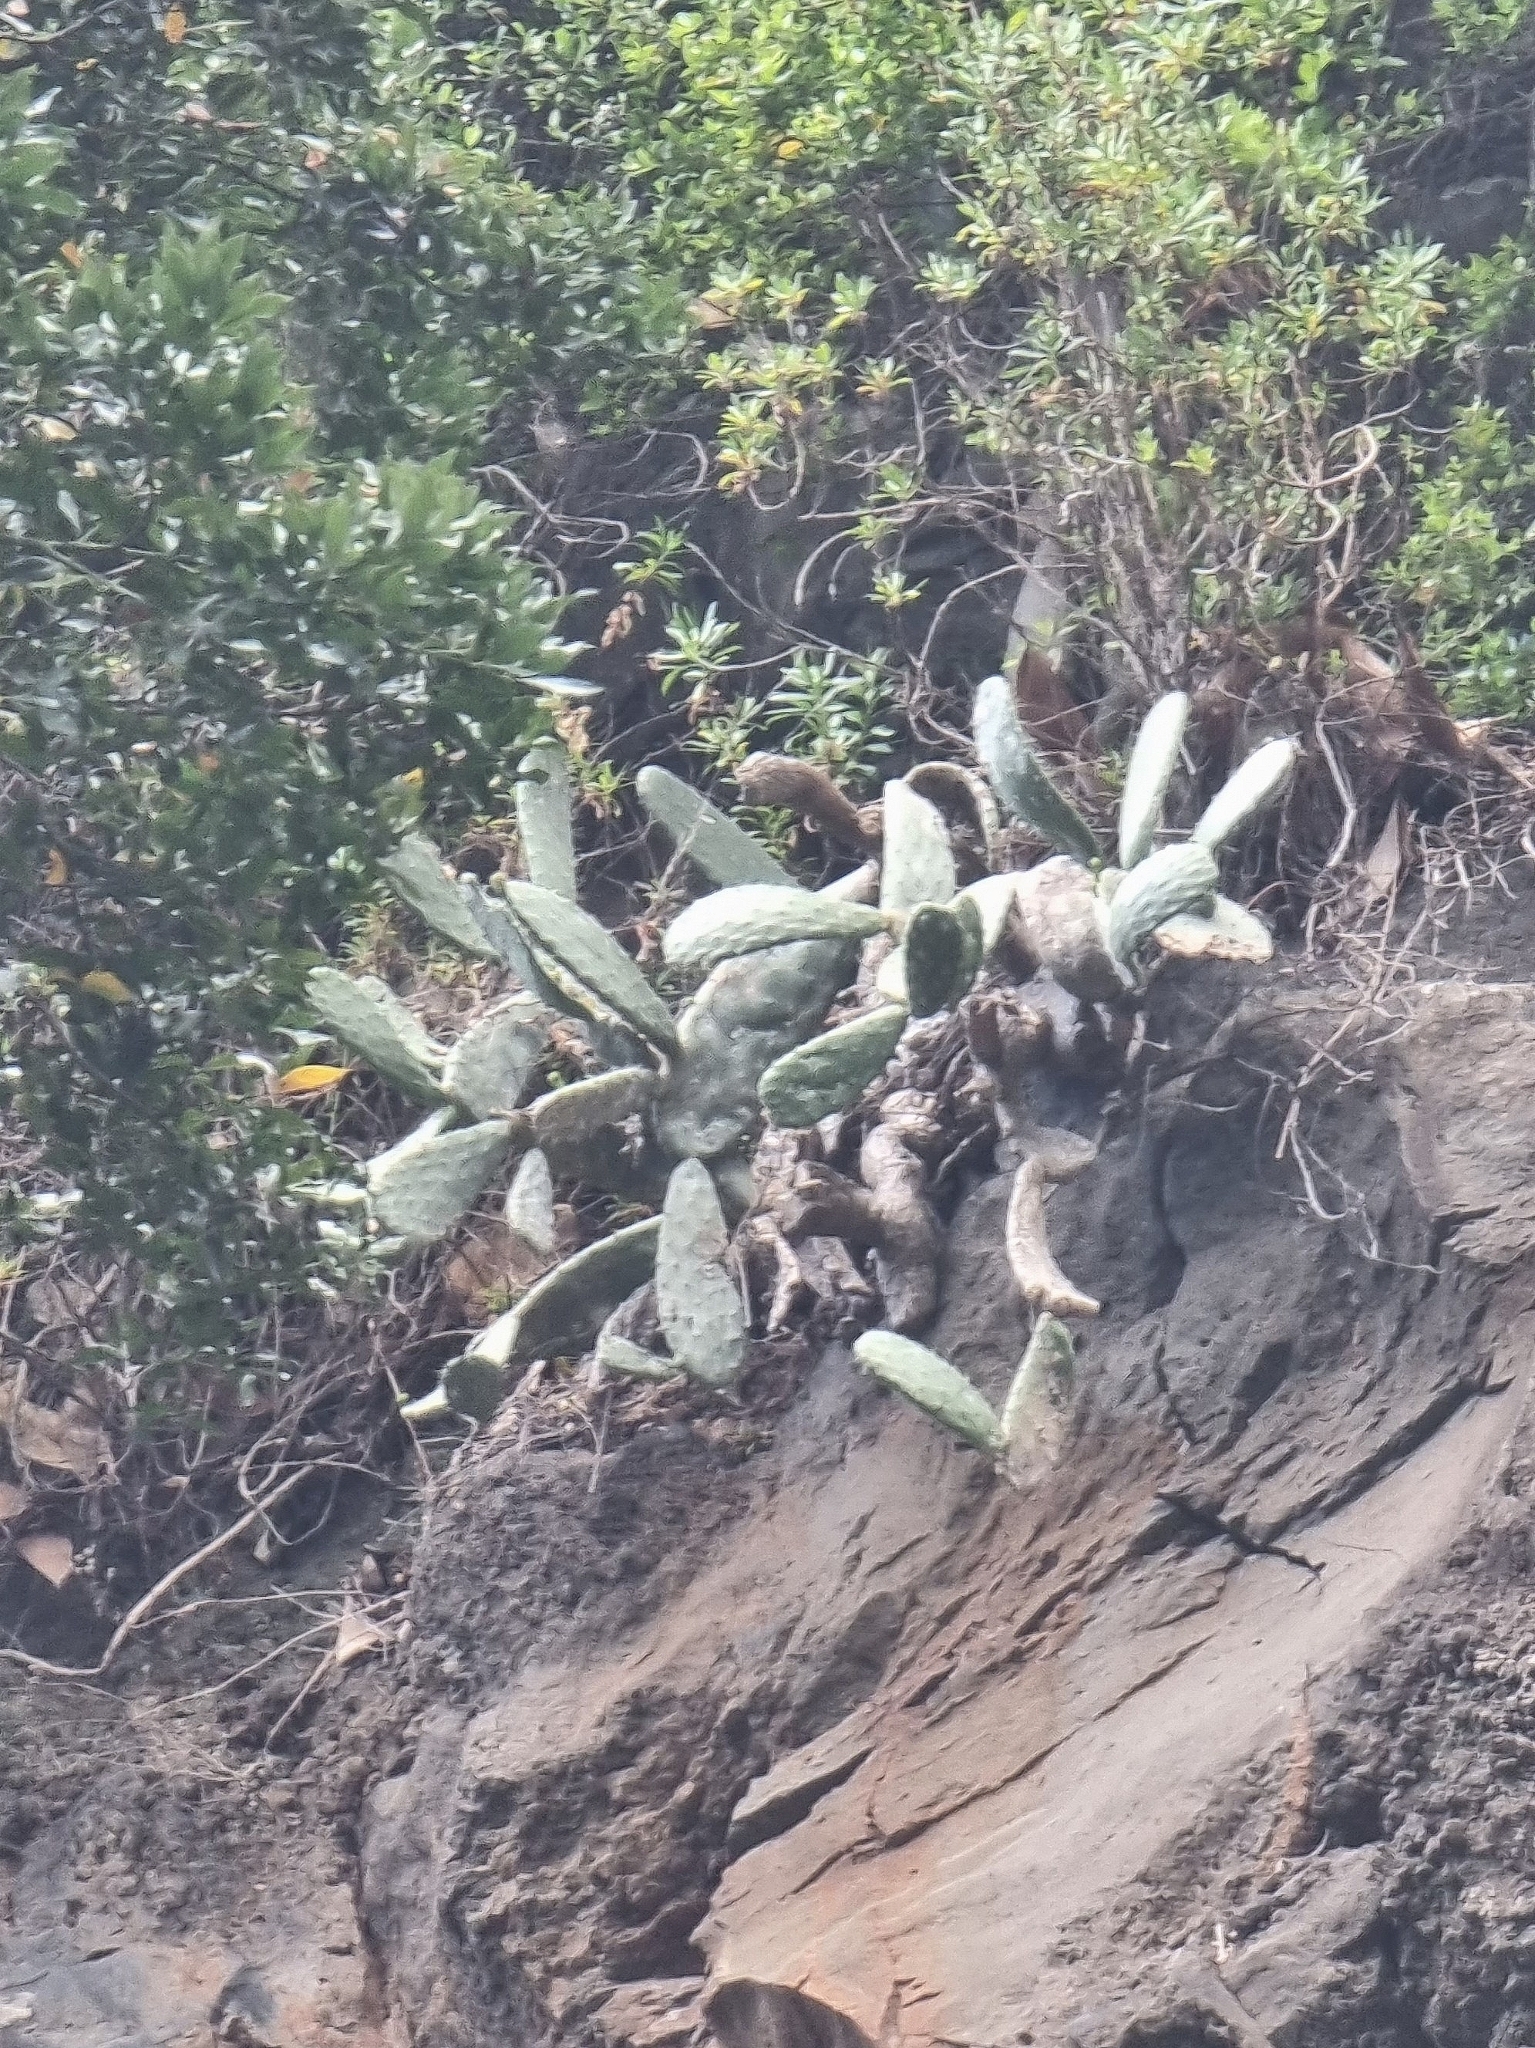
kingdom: Plantae
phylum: Tracheophyta
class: Magnoliopsida
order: Caryophyllales
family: Cactaceae
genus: Opuntia
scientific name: Opuntia ficus-indica
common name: Barbary fig
